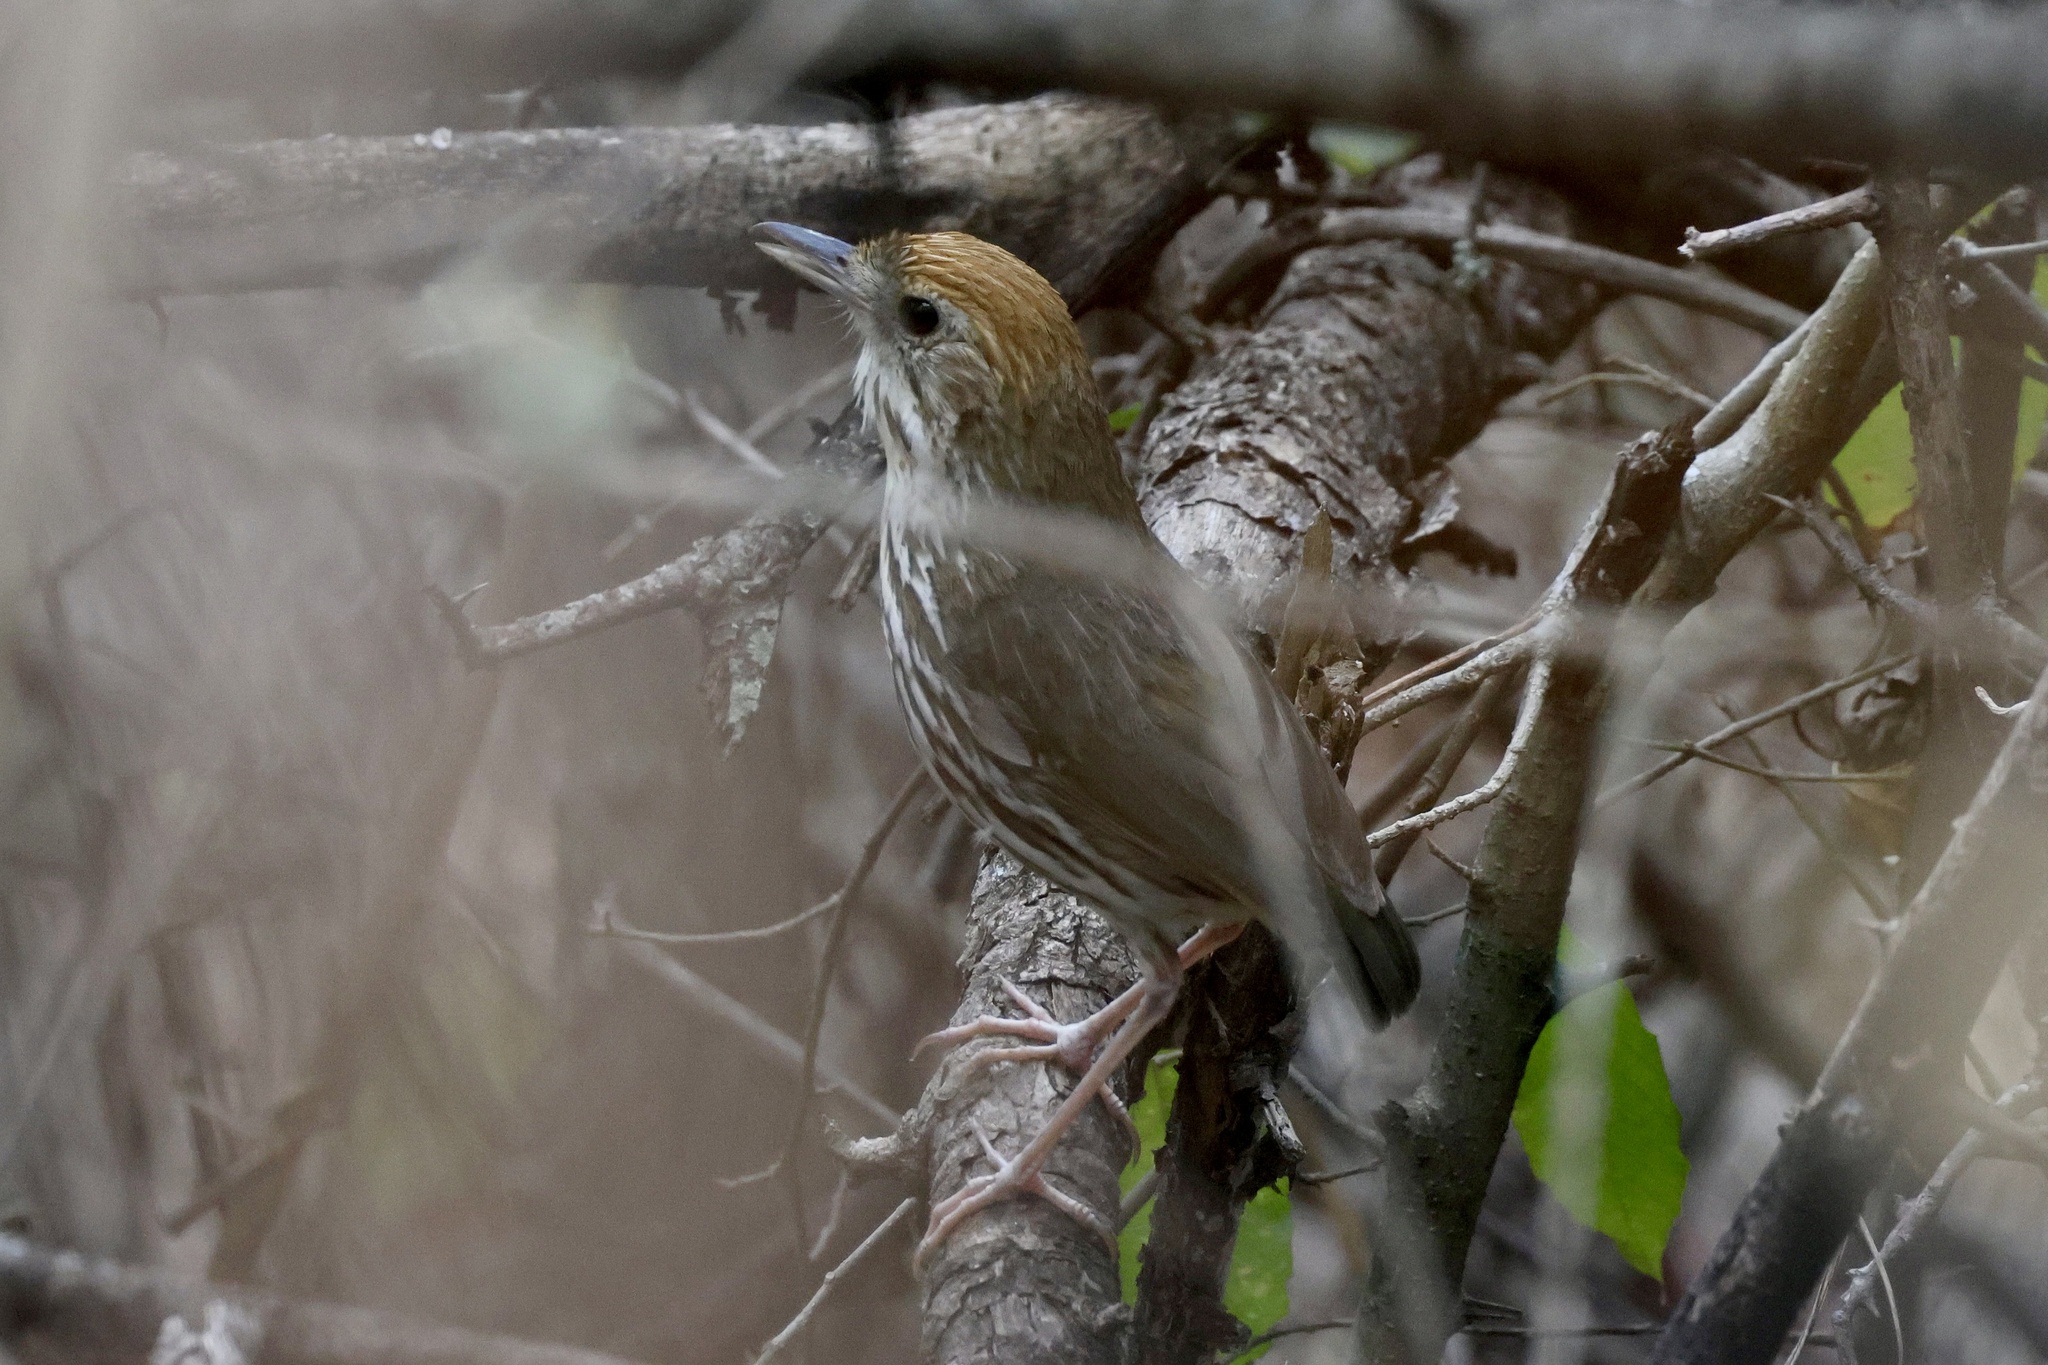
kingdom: Animalia
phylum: Chordata
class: Aves
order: Passeriformes
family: Grallariidae
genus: Grallaria
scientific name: Grallaria watkinsi
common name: Watkins's antpitta
